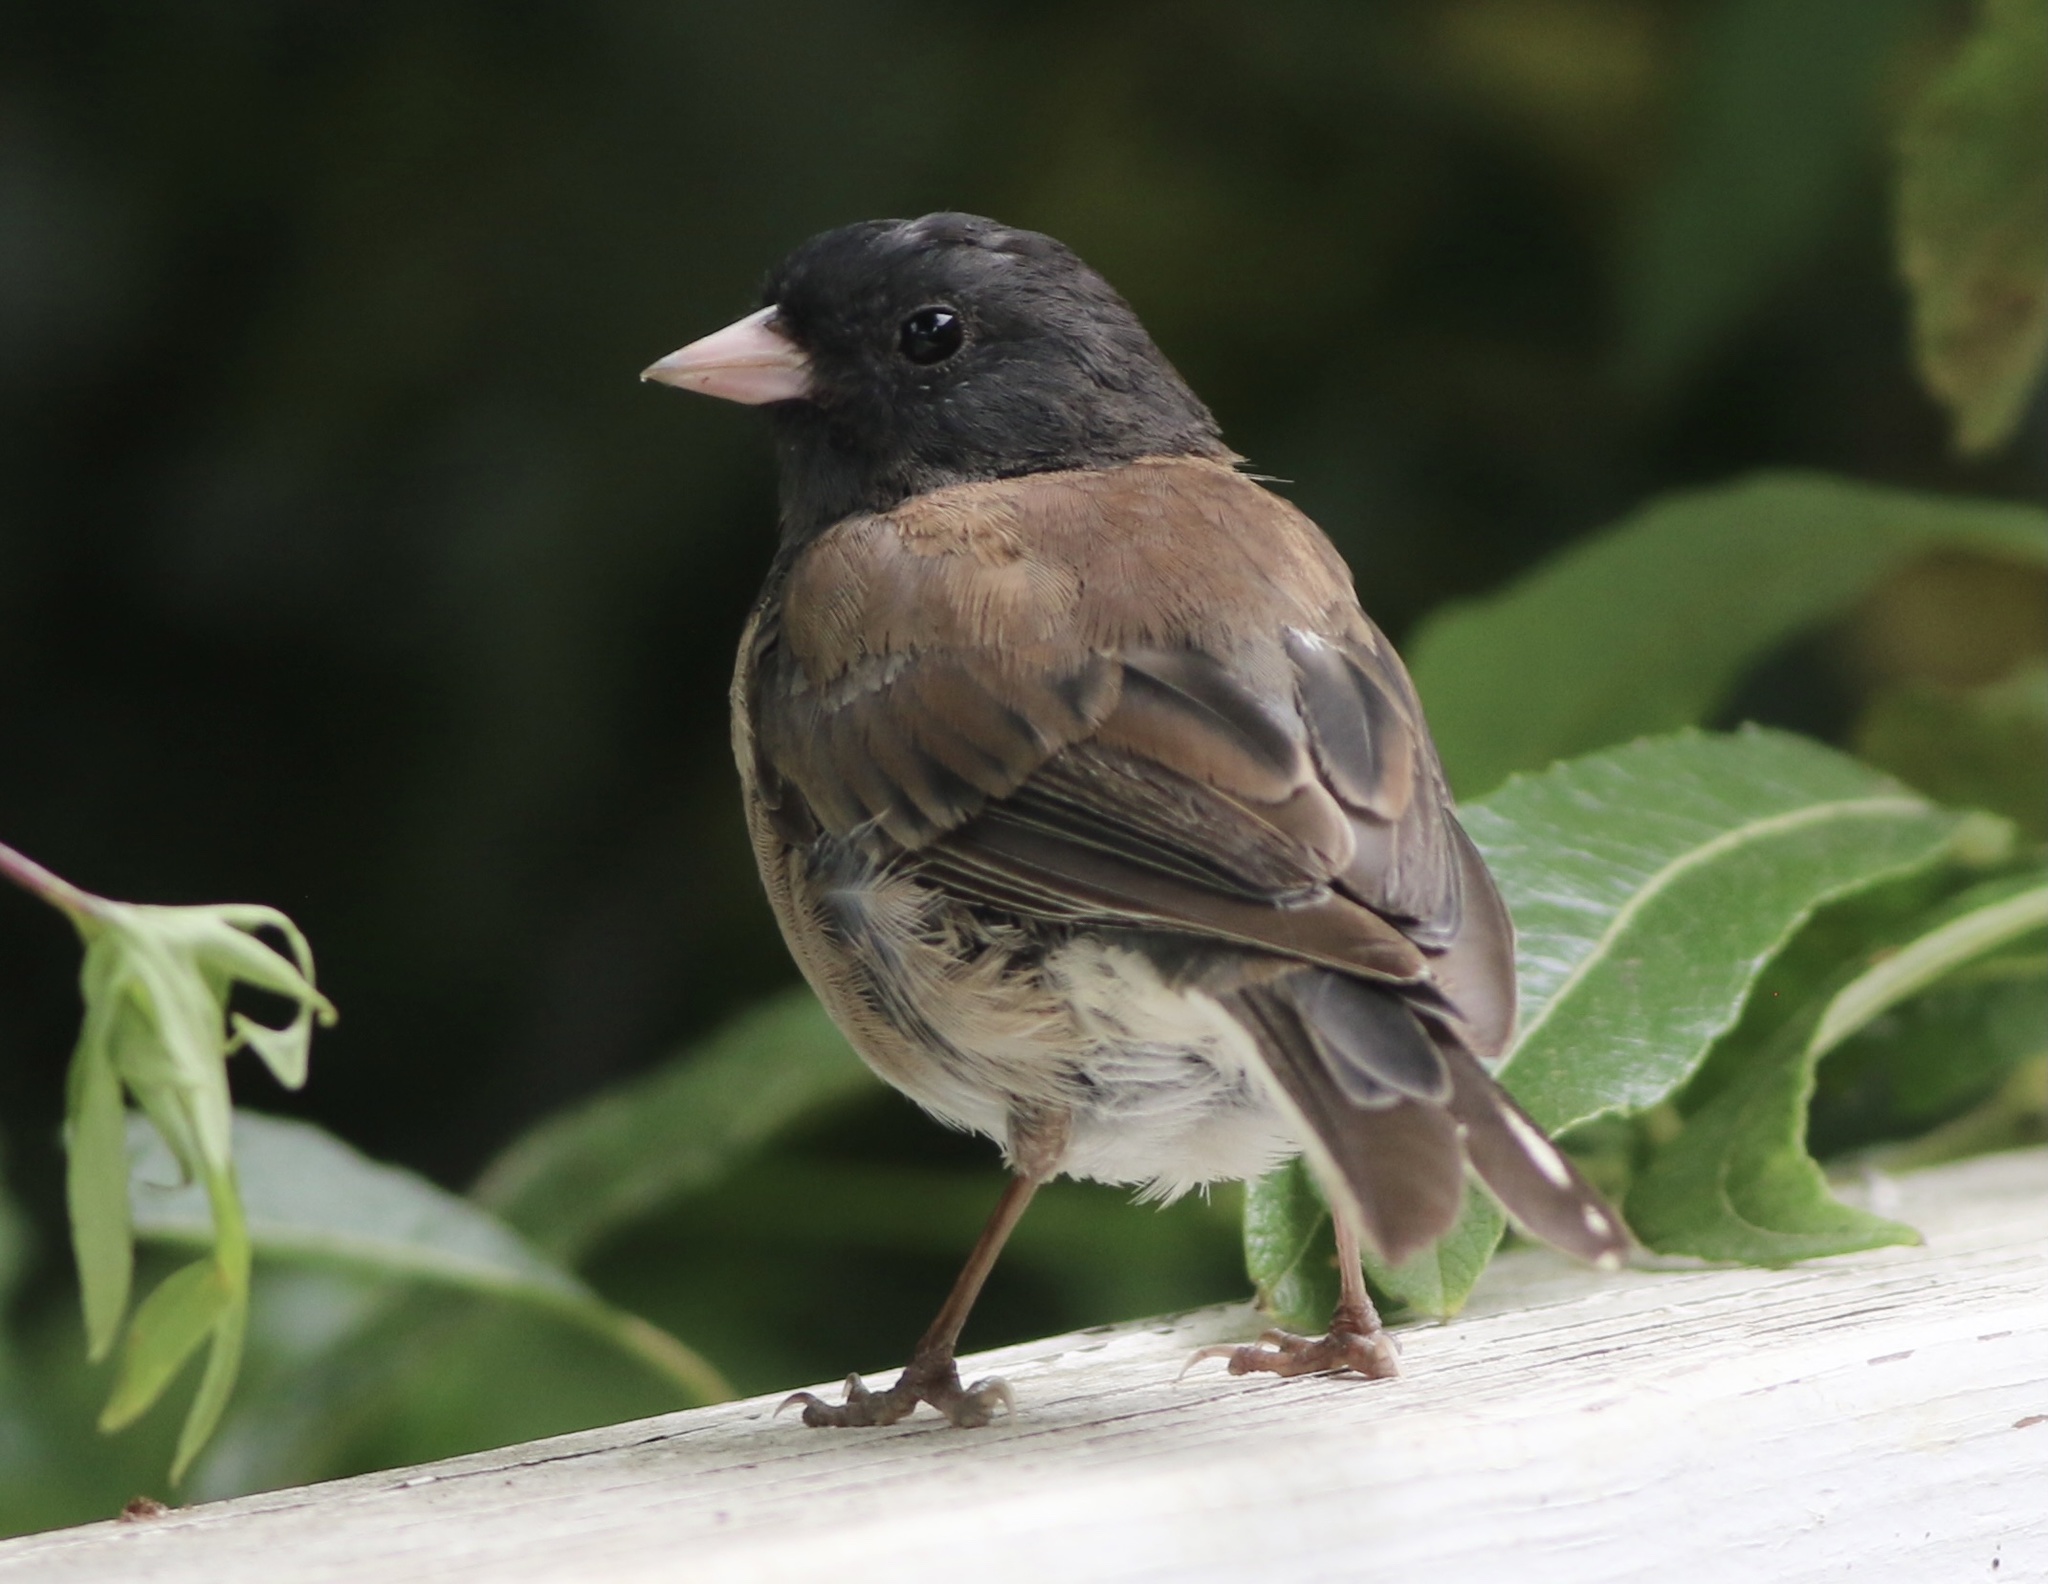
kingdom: Animalia
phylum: Chordata
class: Aves
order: Passeriformes
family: Passerellidae
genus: Junco
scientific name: Junco hyemalis
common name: Dark-eyed junco
